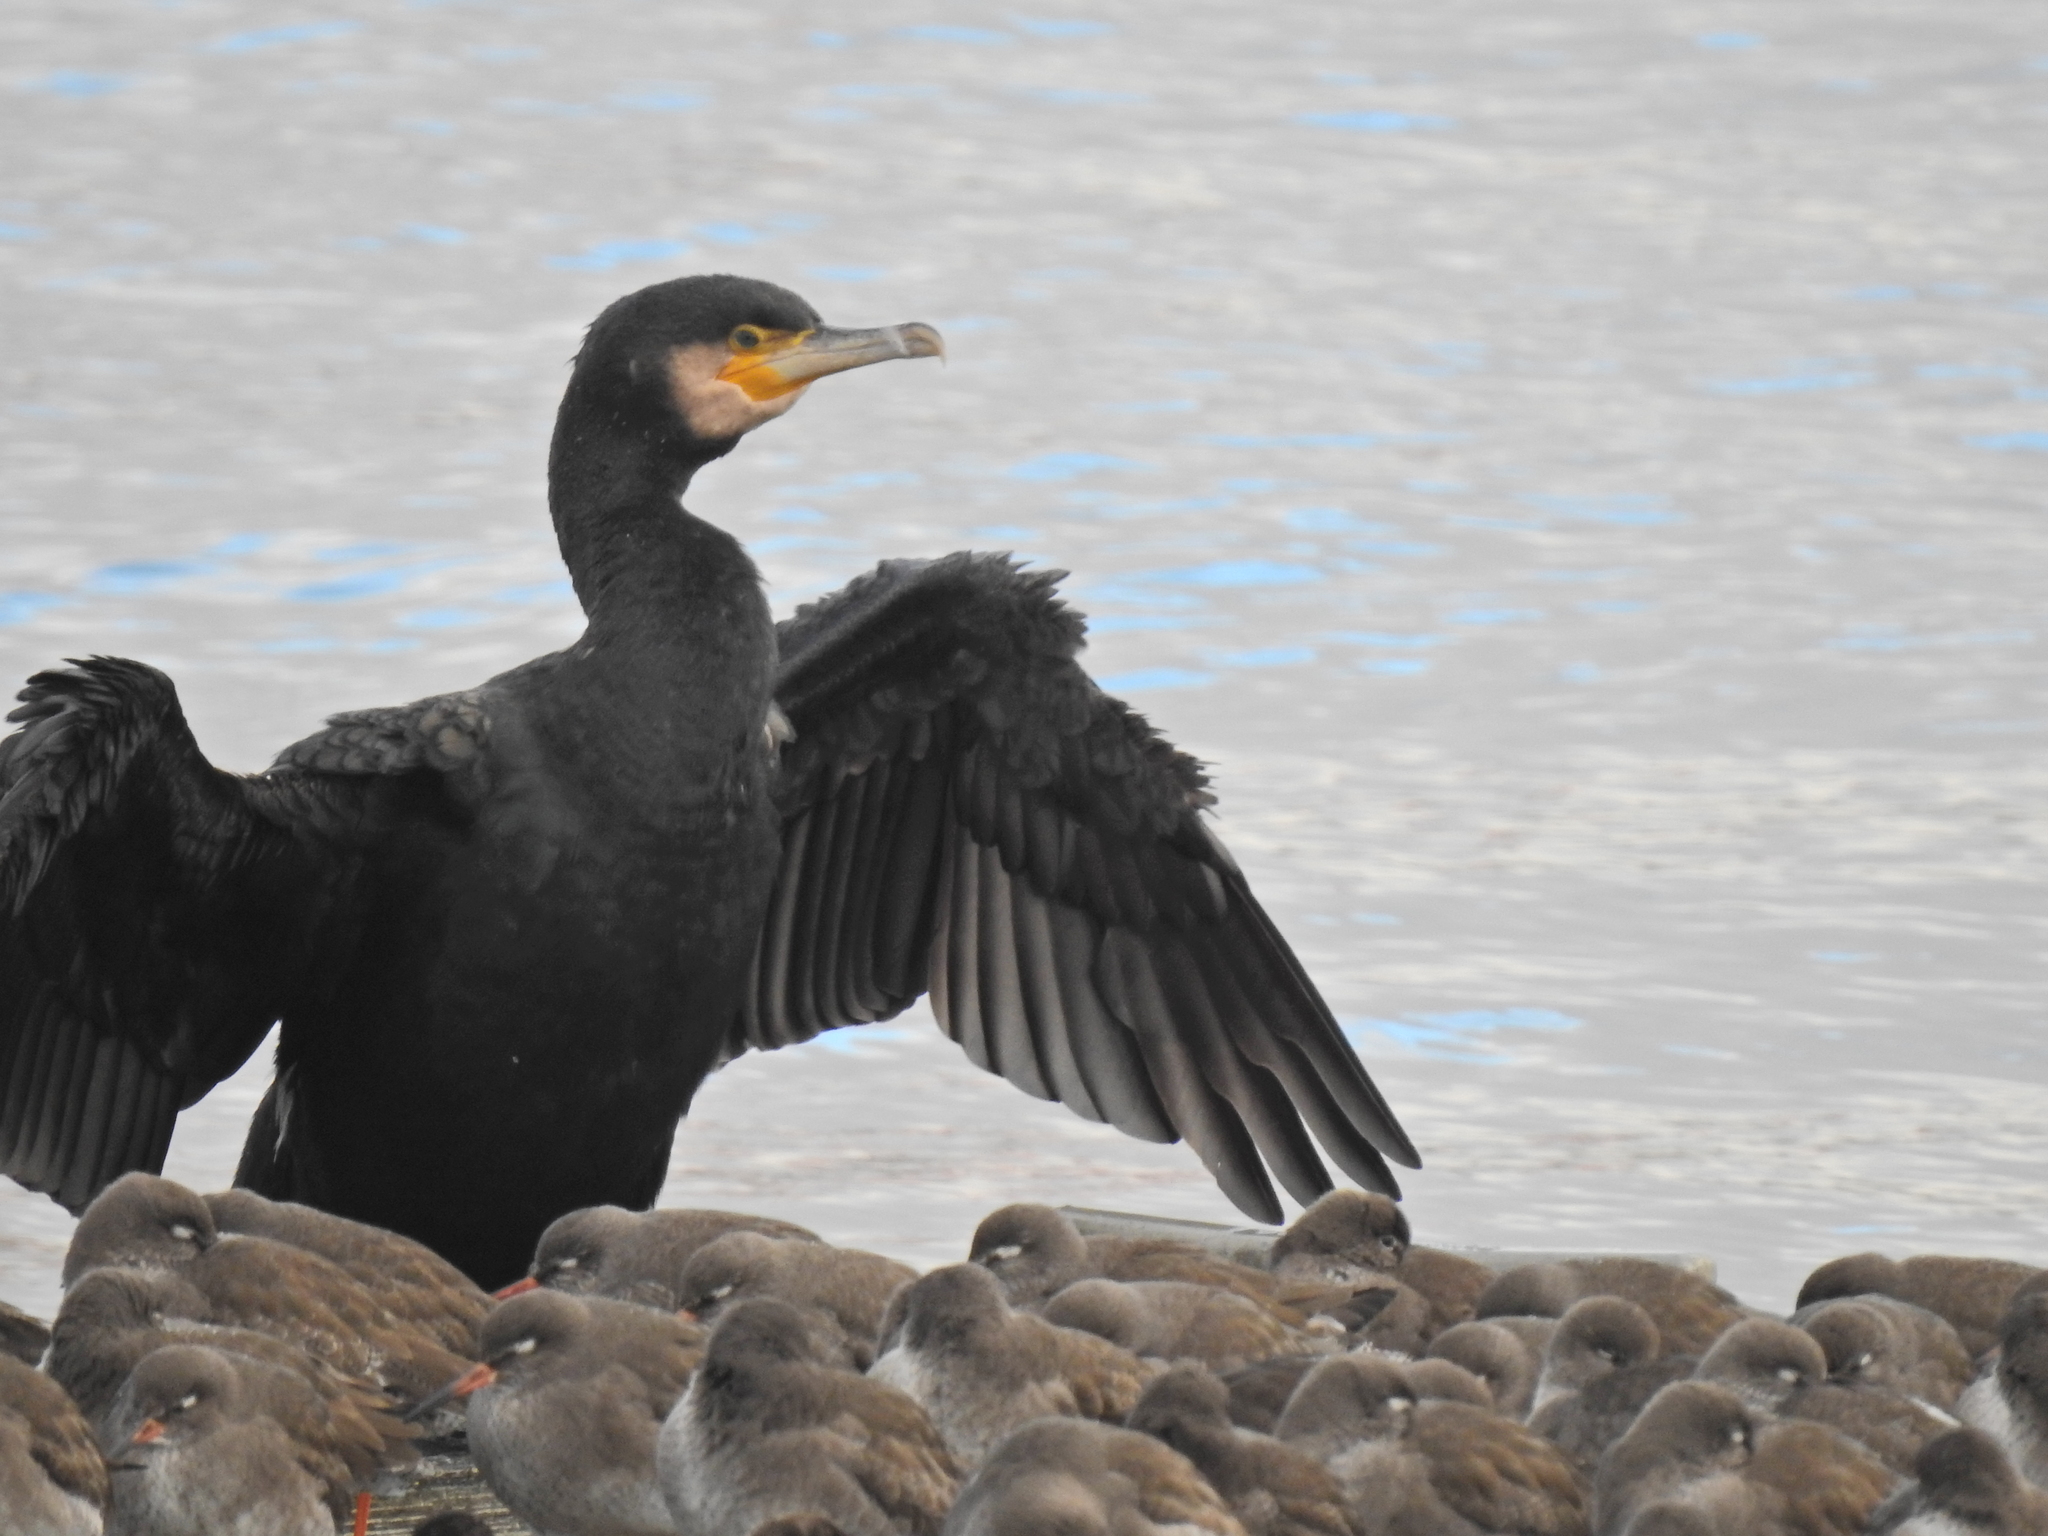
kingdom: Animalia
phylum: Chordata
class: Aves
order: Suliformes
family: Phalacrocoracidae
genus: Phalacrocorax
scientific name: Phalacrocorax carbo
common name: Great cormorant
